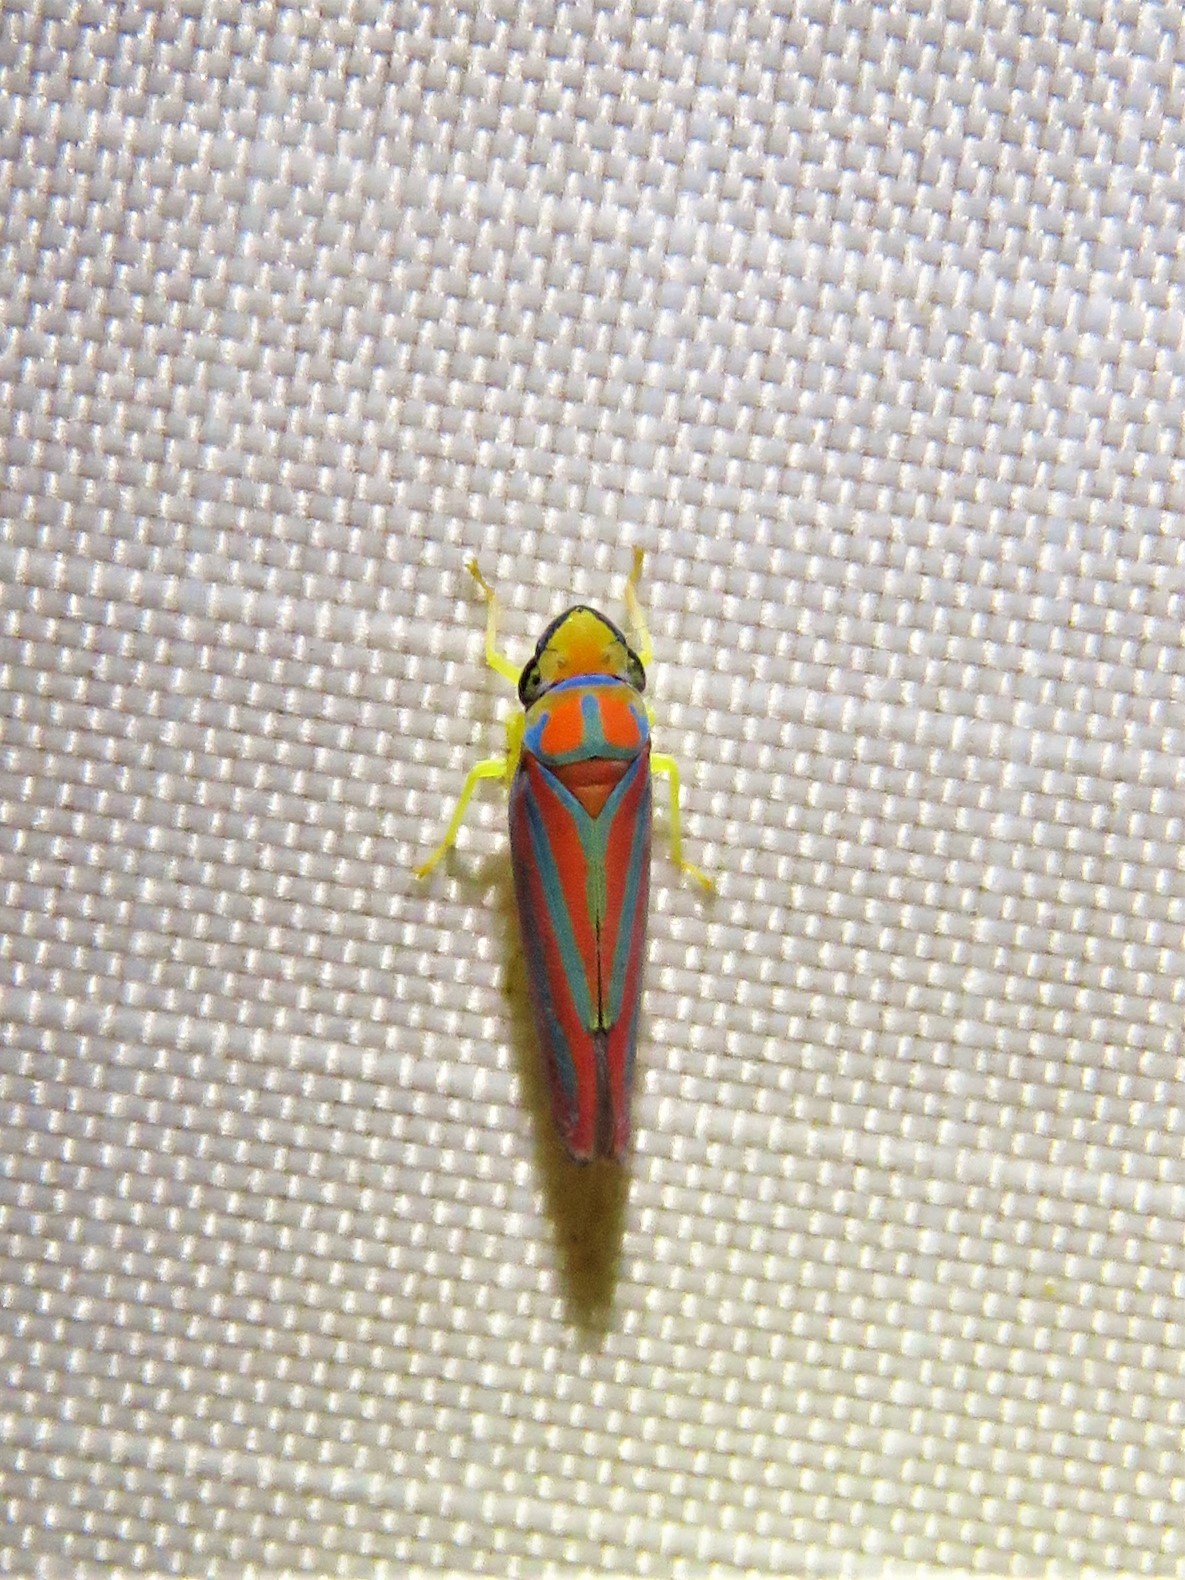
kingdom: Animalia
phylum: Arthropoda
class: Insecta
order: Hemiptera
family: Cicadellidae
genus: Graphocephala
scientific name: Graphocephala coccinea
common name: Candy-striped leafhopper
